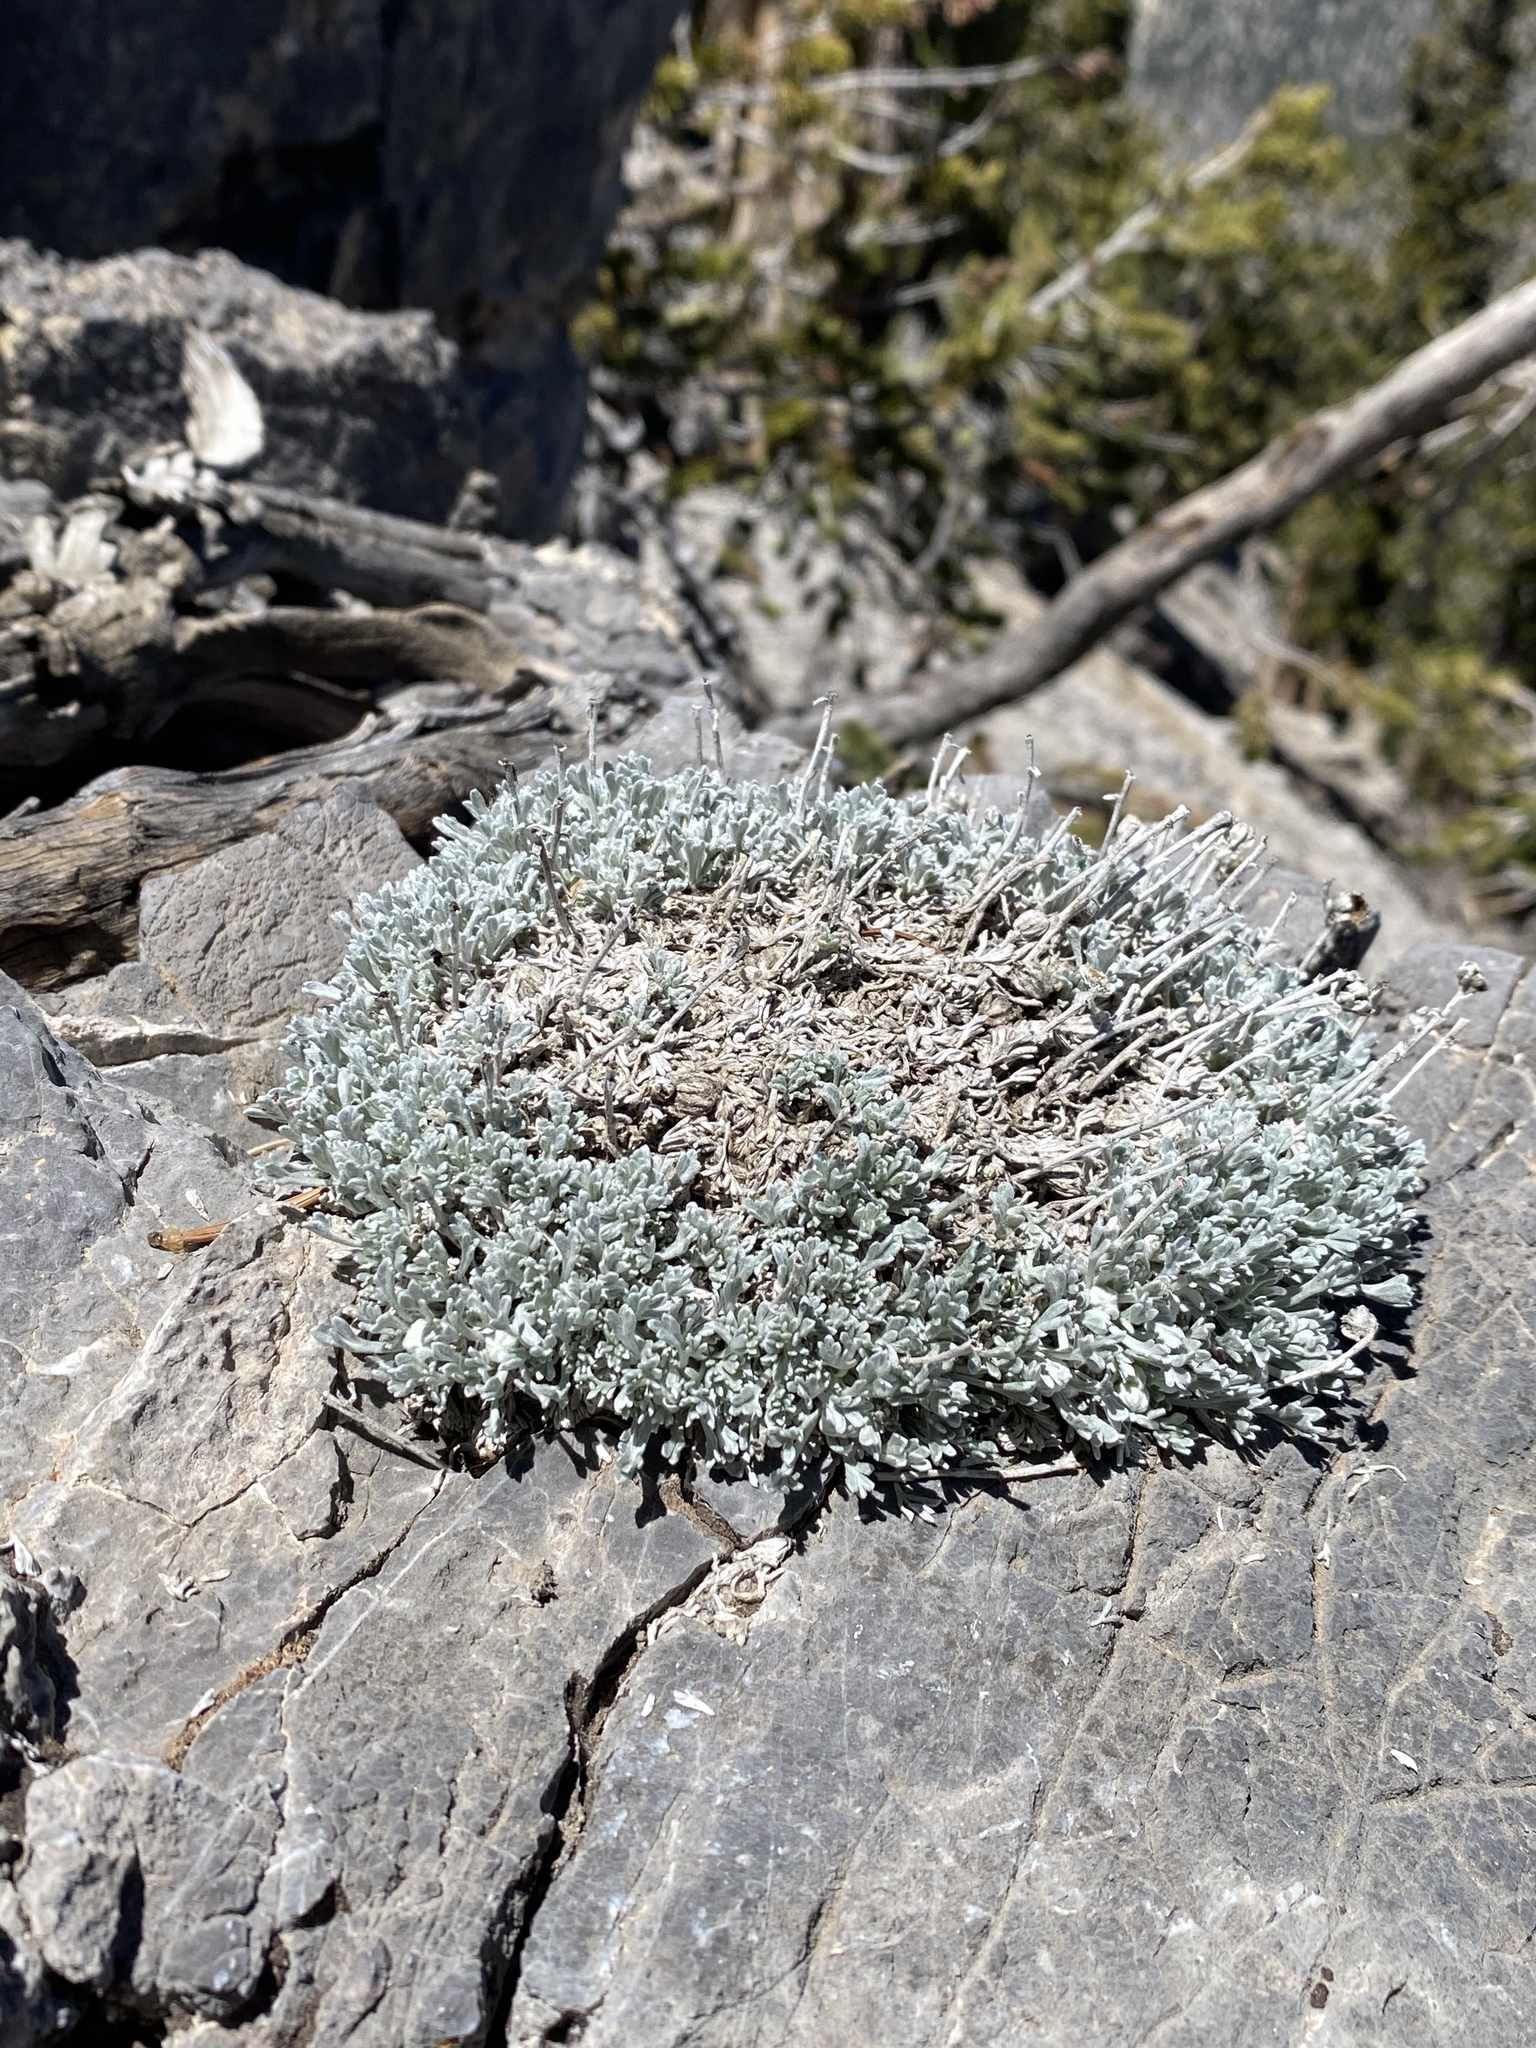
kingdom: Plantae
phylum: Tracheophyta
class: Magnoliopsida
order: Asterales
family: Asteraceae
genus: Artemisia
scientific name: Artemisia constricta
